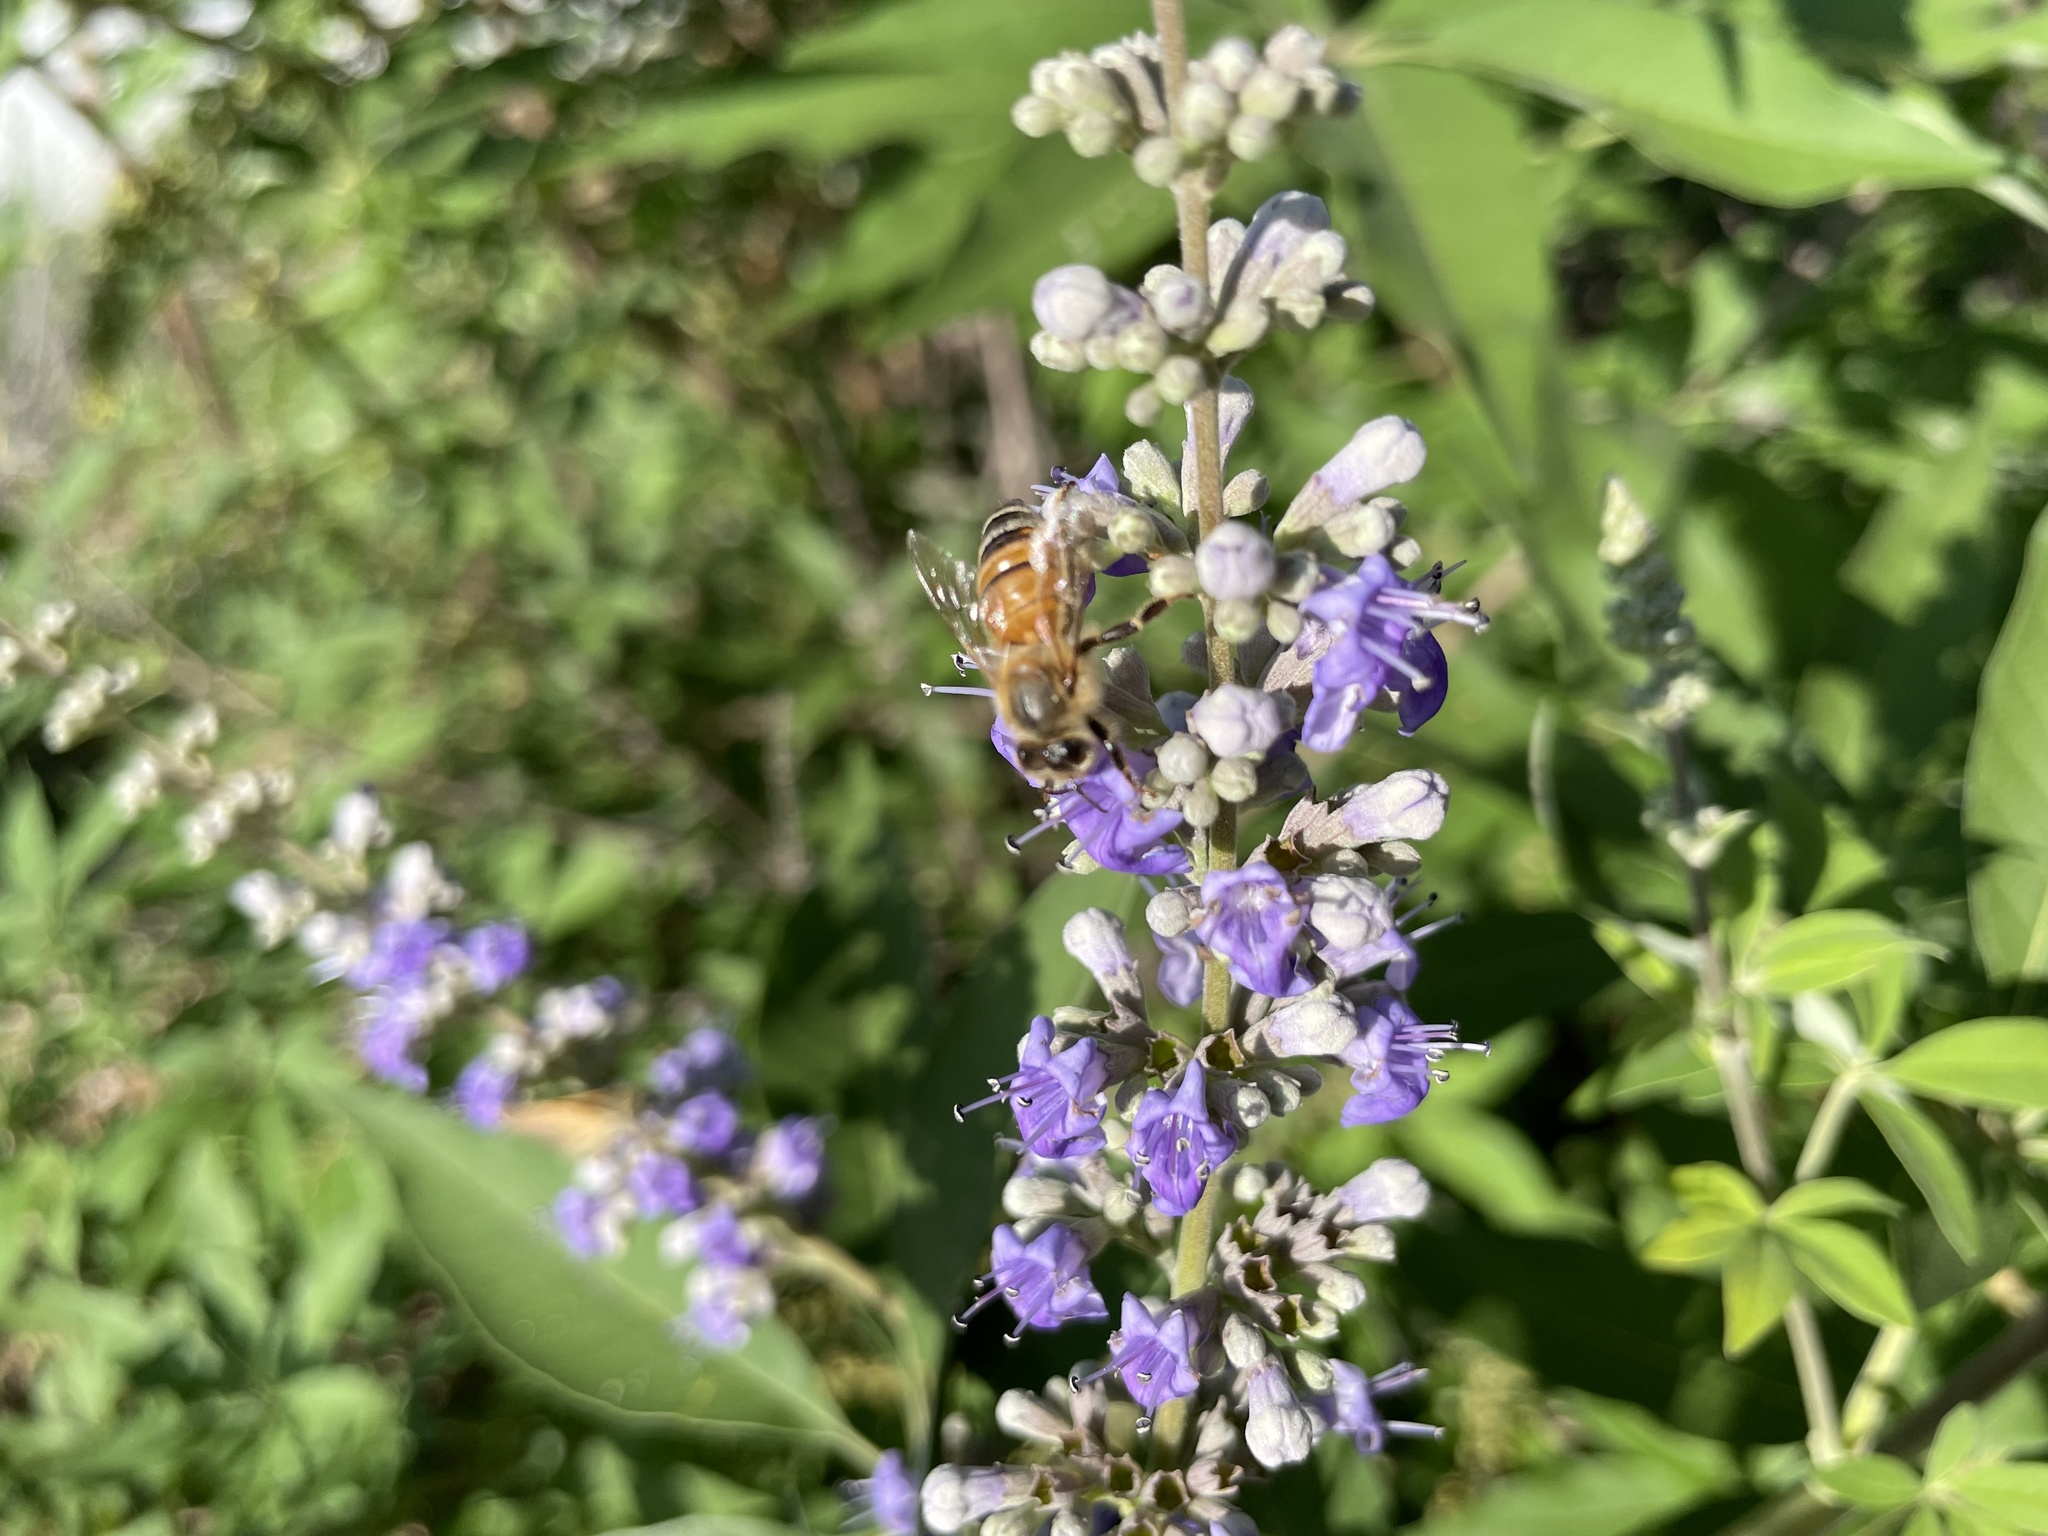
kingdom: Animalia
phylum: Arthropoda
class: Insecta
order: Hymenoptera
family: Apidae
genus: Apis
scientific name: Apis mellifera
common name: Honey bee
